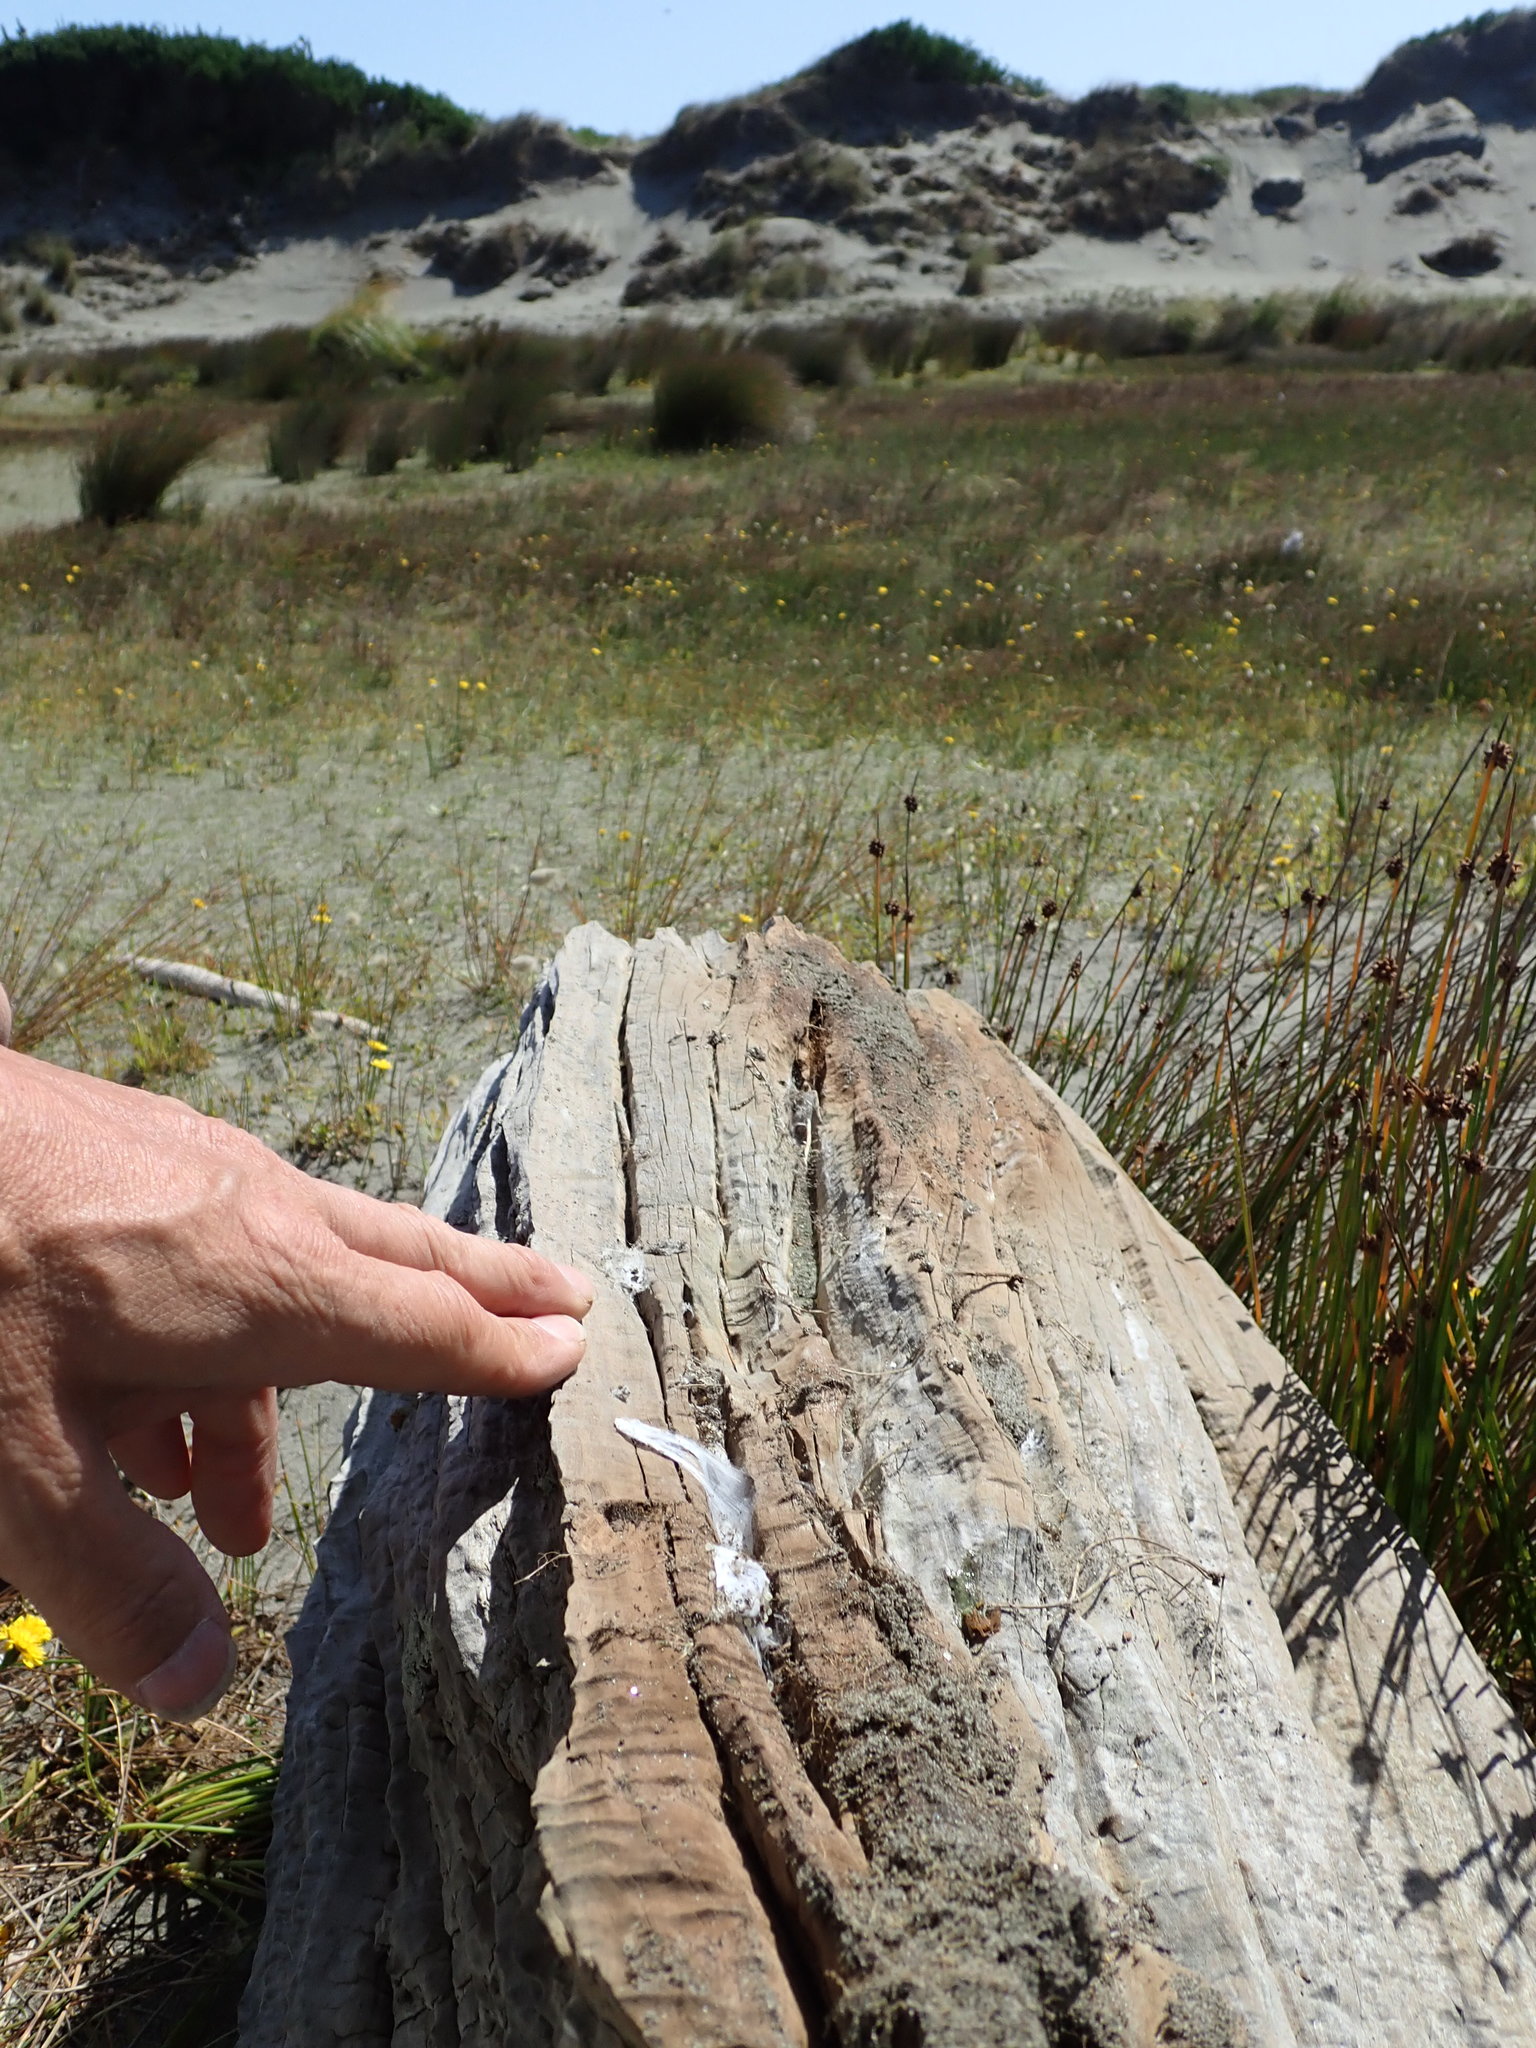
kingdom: Animalia
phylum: Arthropoda
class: Arachnida
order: Araneae
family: Thomisidae
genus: Sidymella
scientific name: Sidymella trapezia
